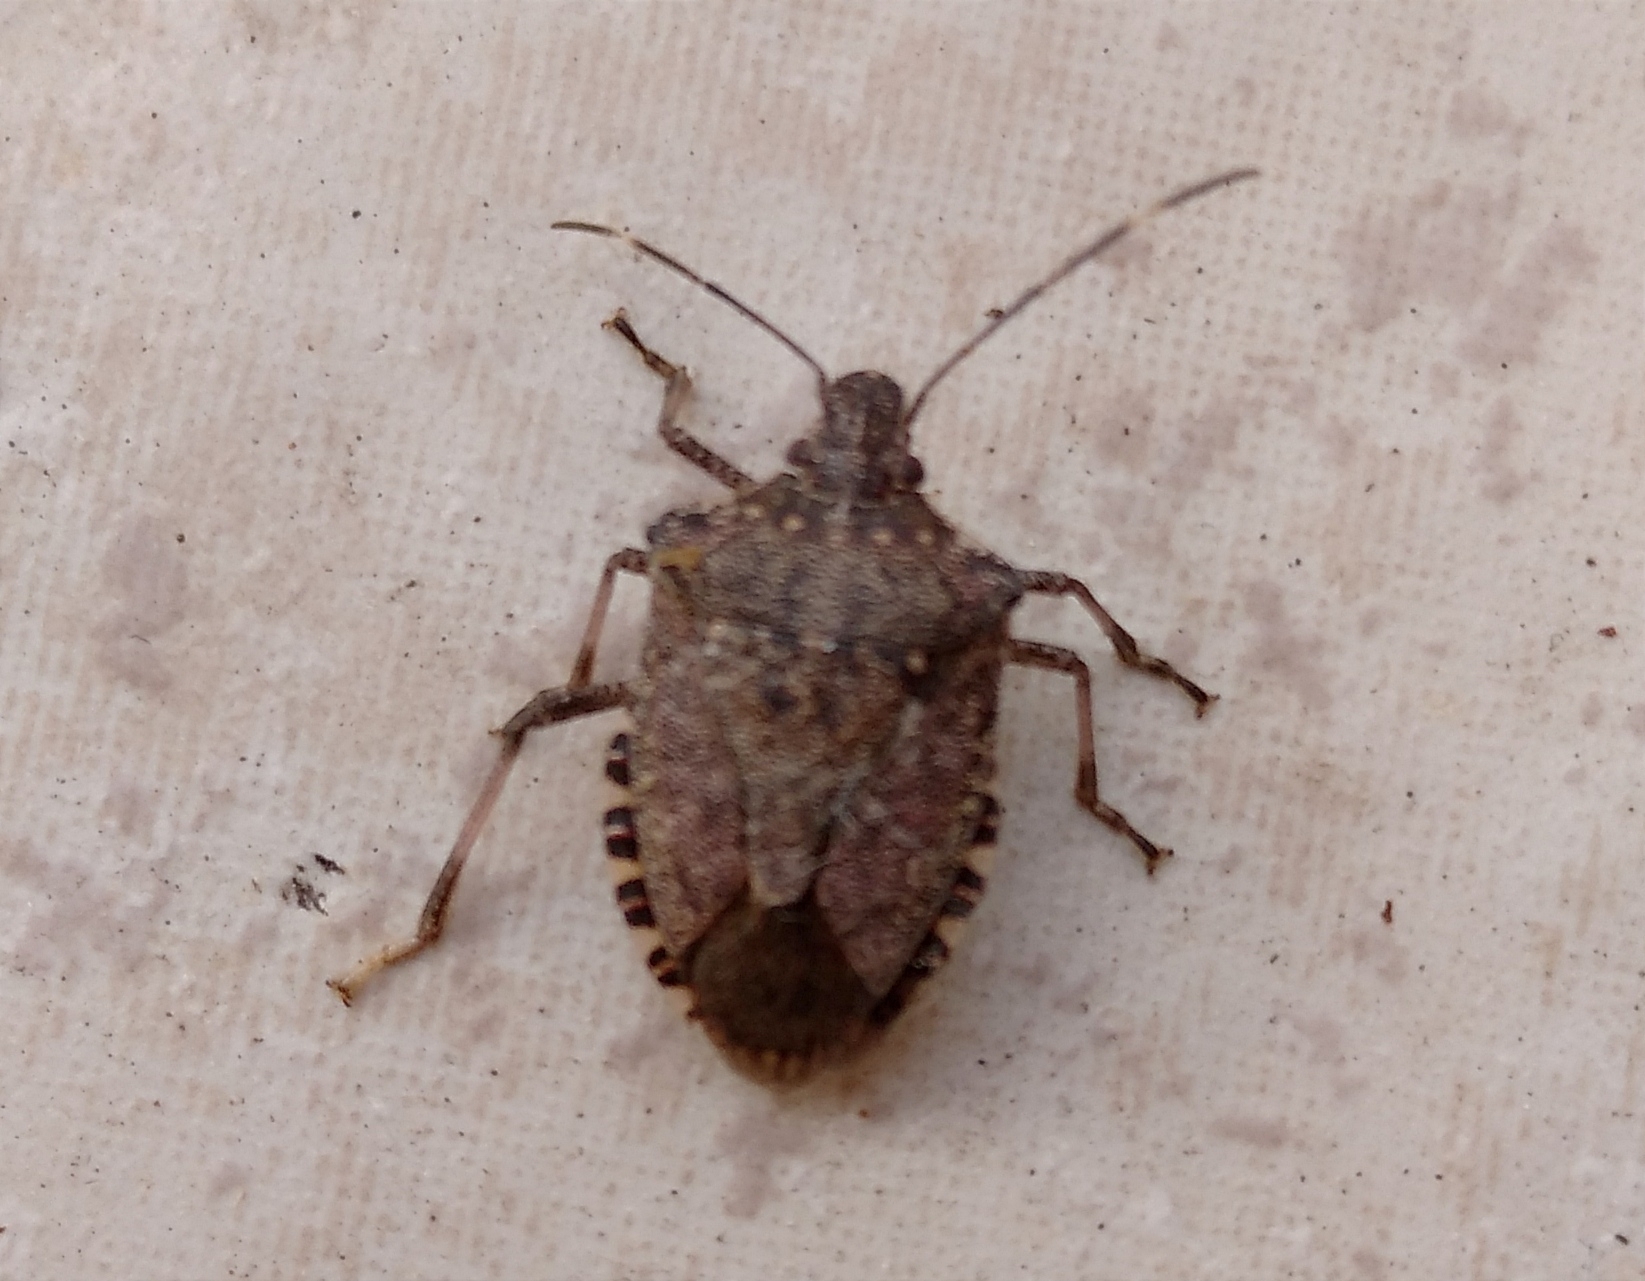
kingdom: Animalia
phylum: Arthropoda
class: Insecta
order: Hemiptera
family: Pentatomidae
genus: Halyomorpha
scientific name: Halyomorpha halys
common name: Brown marmorated stink bug
